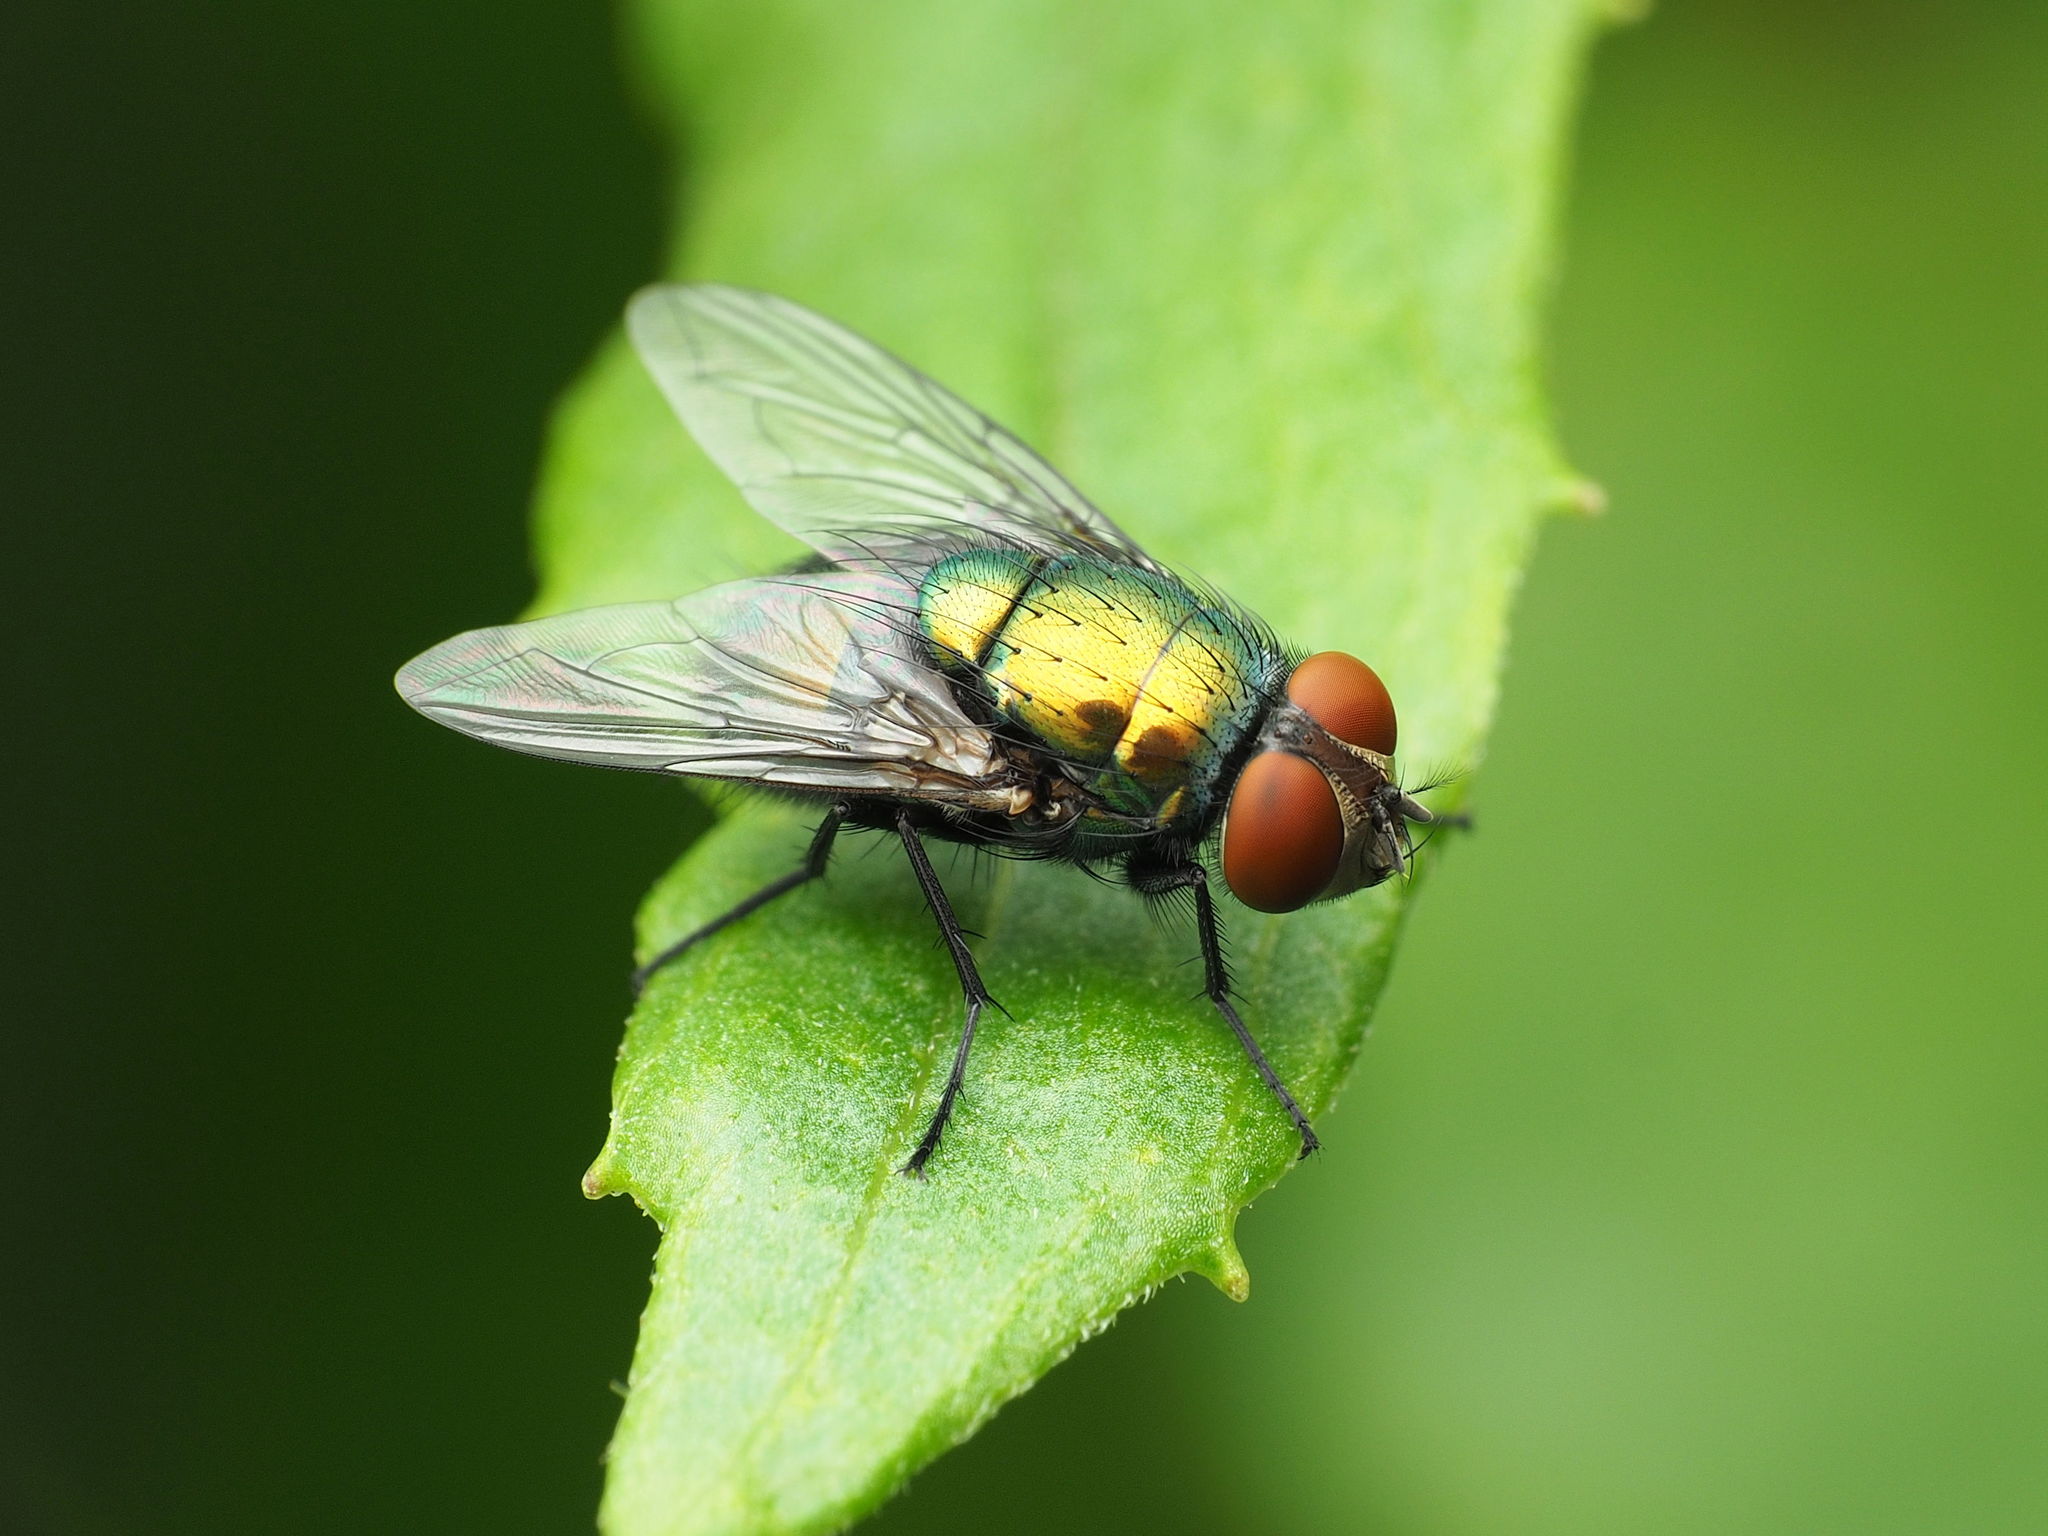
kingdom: Animalia
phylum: Arthropoda
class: Insecta
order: Diptera
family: Calliphoridae
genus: Lucilia
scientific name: Lucilia sericata
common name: Blow fly
